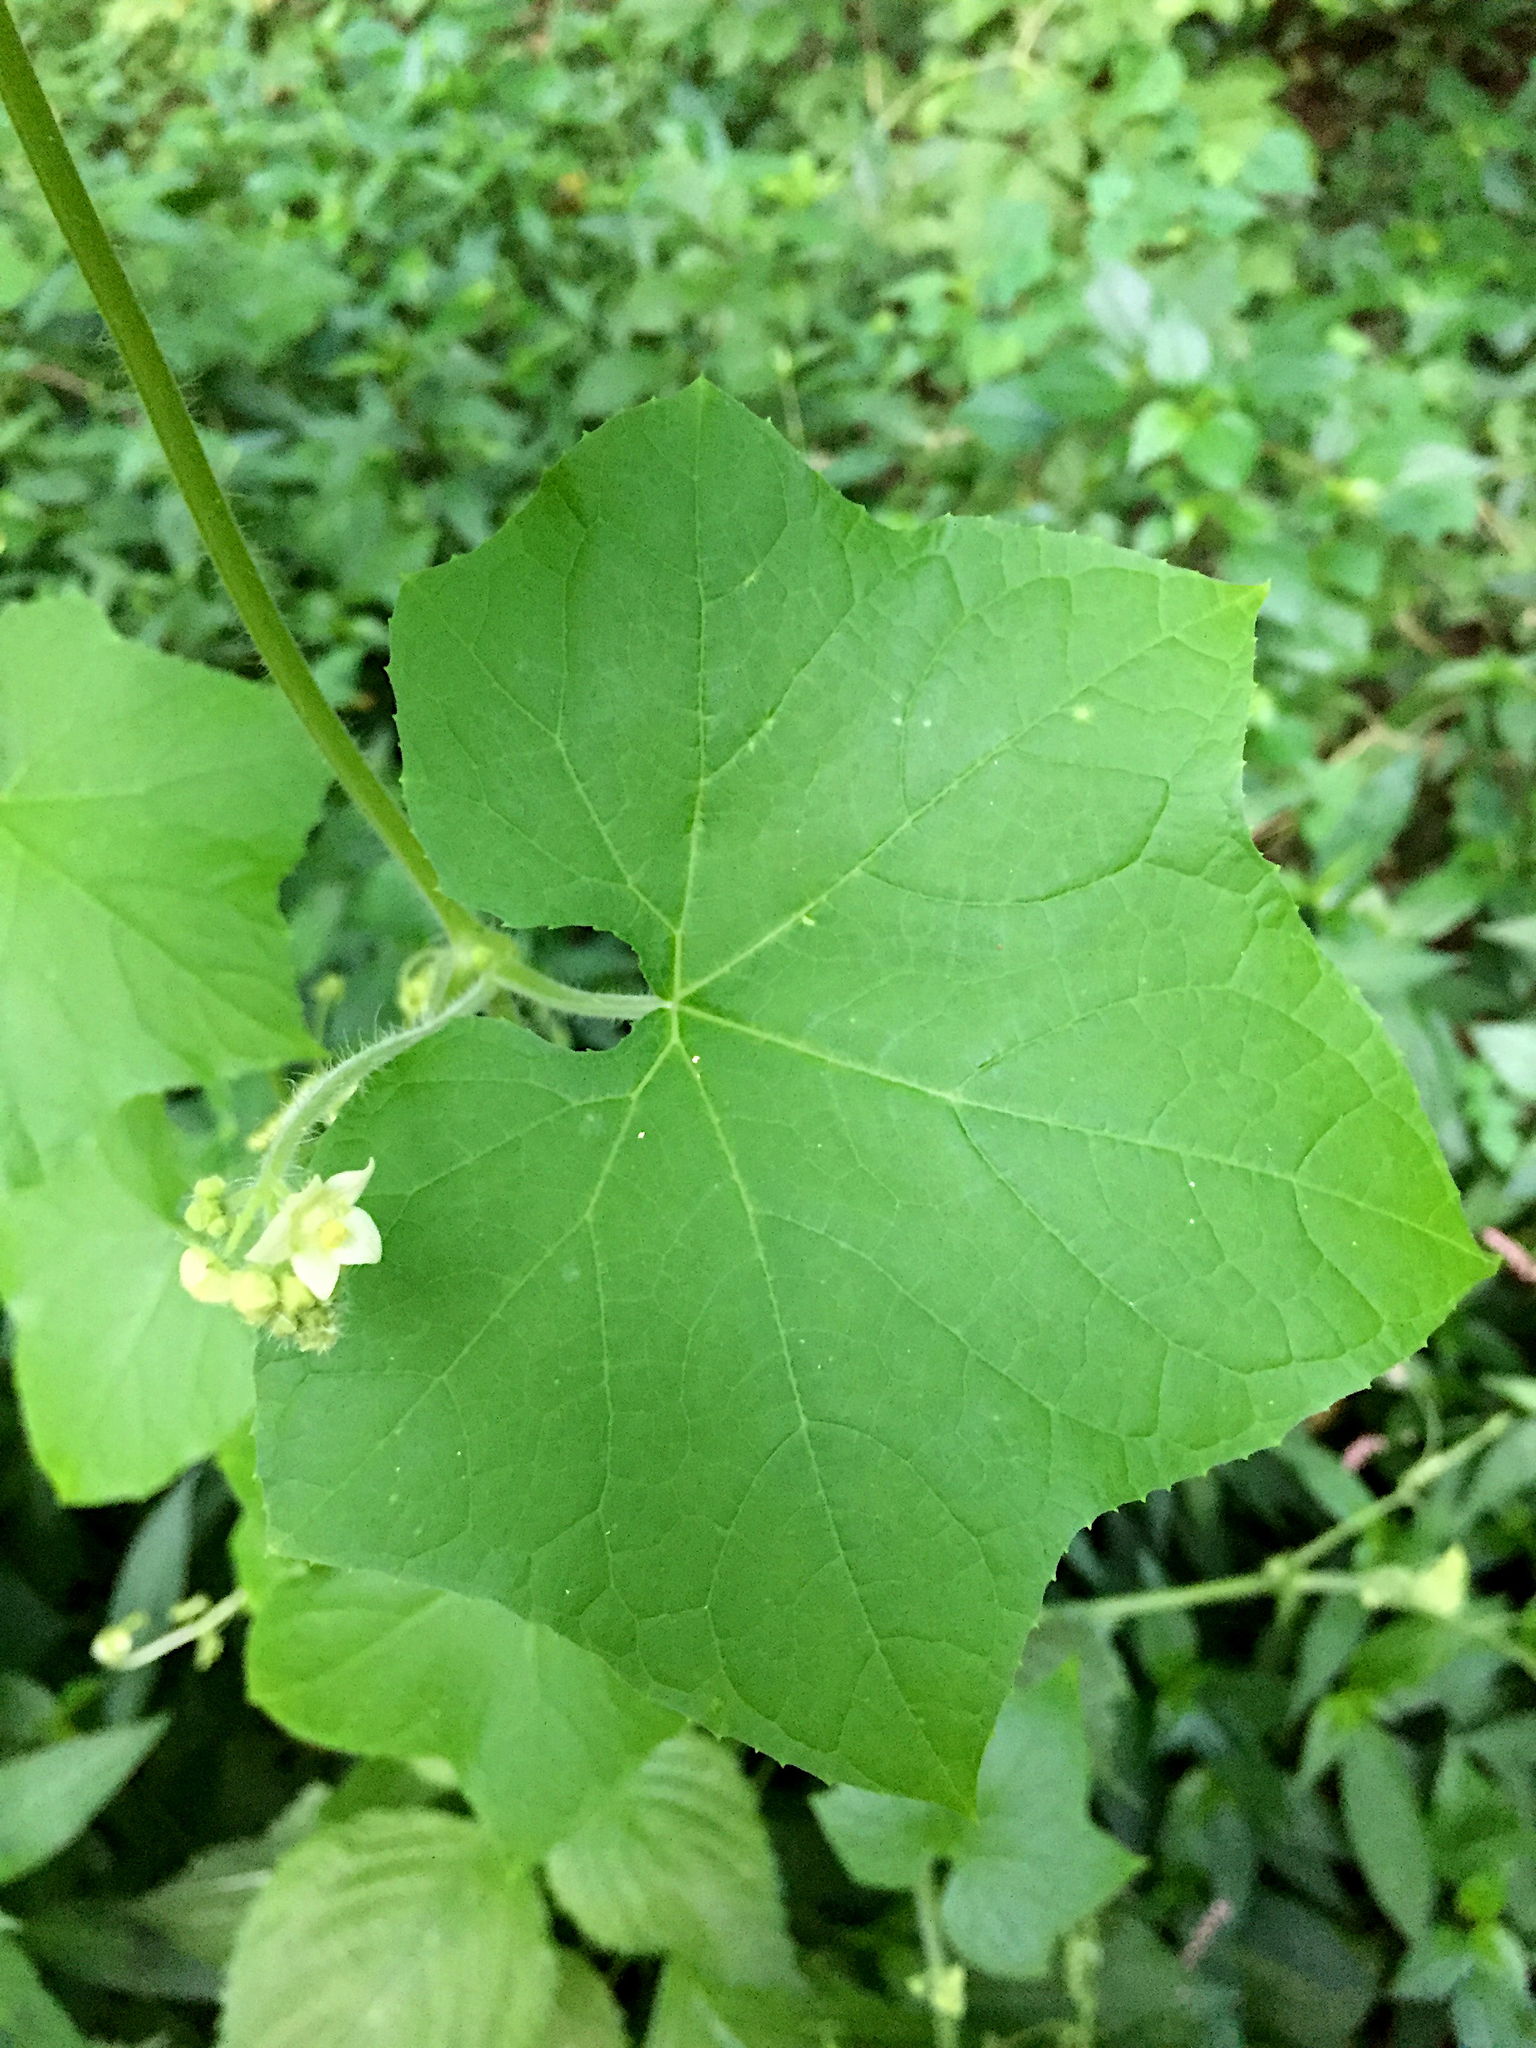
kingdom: Plantae
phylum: Tracheophyta
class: Magnoliopsida
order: Cucurbitales
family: Cucurbitaceae
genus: Sicyos
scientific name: Sicyos angulatus
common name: Angled burr cucumber
